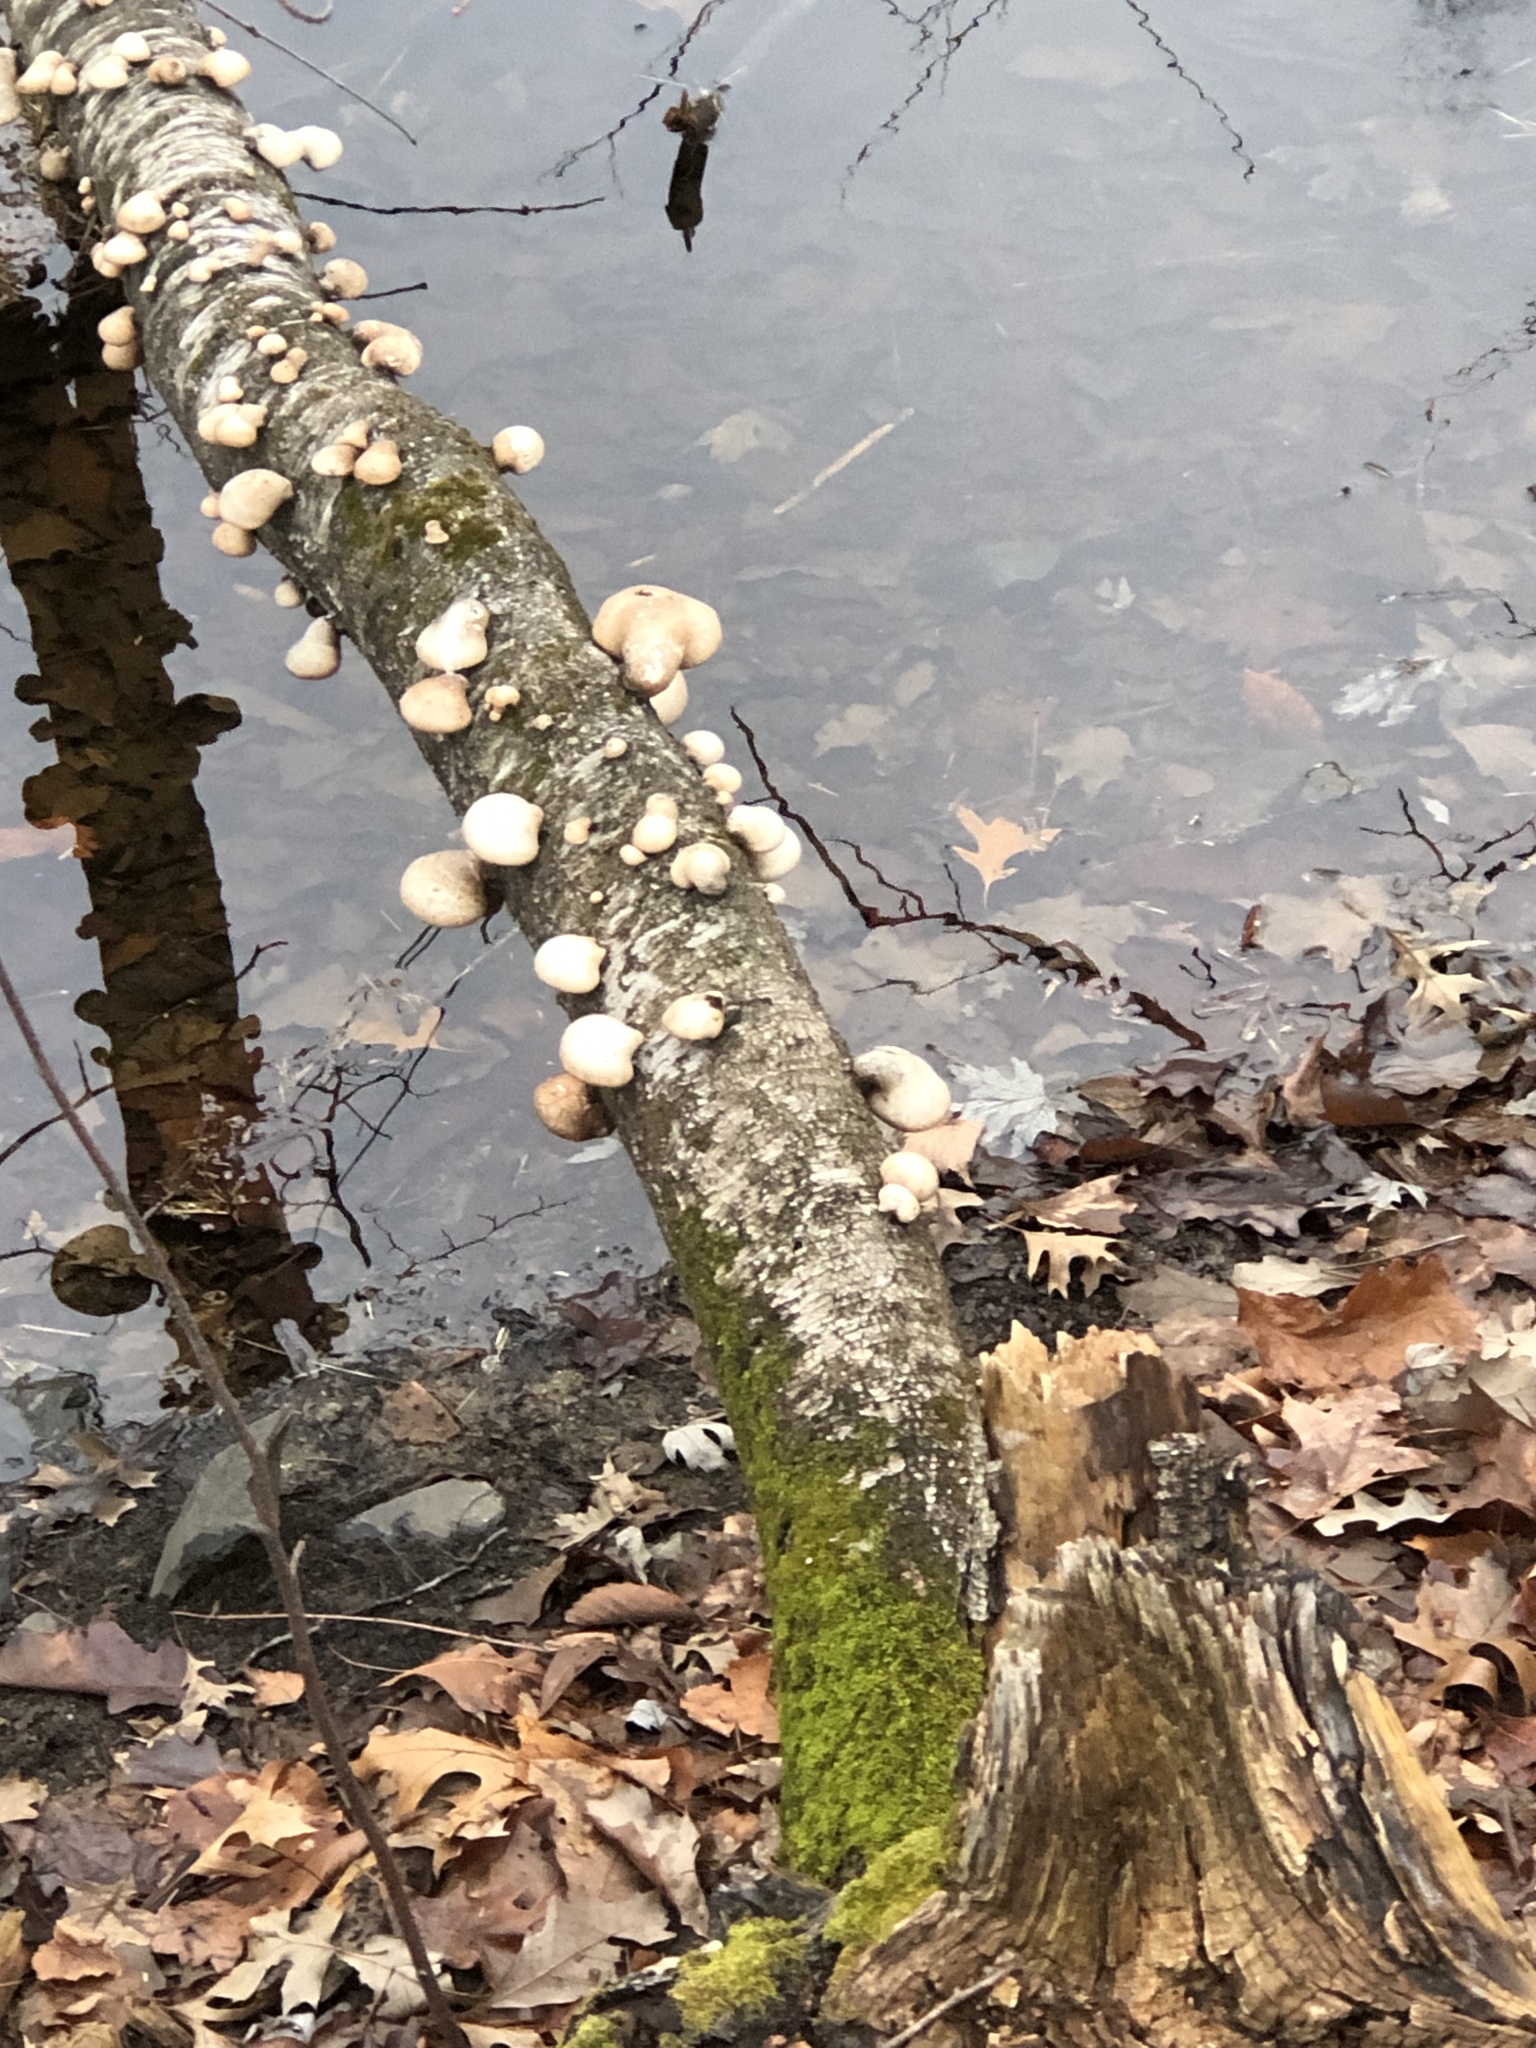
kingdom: Fungi
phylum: Basidiomycota
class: Agaricomycetes
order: Polyporales
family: Fomitopsidaceae
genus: Fomitopsis
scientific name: Fomitopsis betulina
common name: Birch polypore
